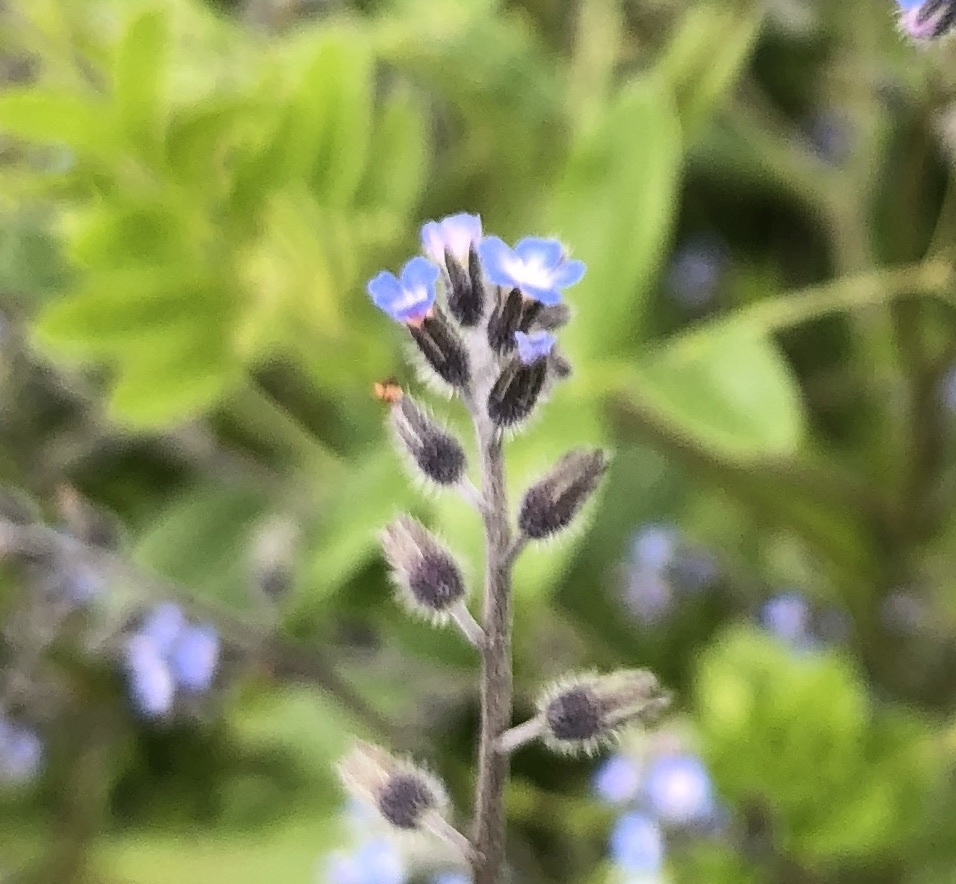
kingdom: Plantae
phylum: Tracheophyta
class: Magnoliopsida
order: Boraginales
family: Boraginaceae
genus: Myosotis
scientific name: Myosotis ramosissima
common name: Early forget-me-not
